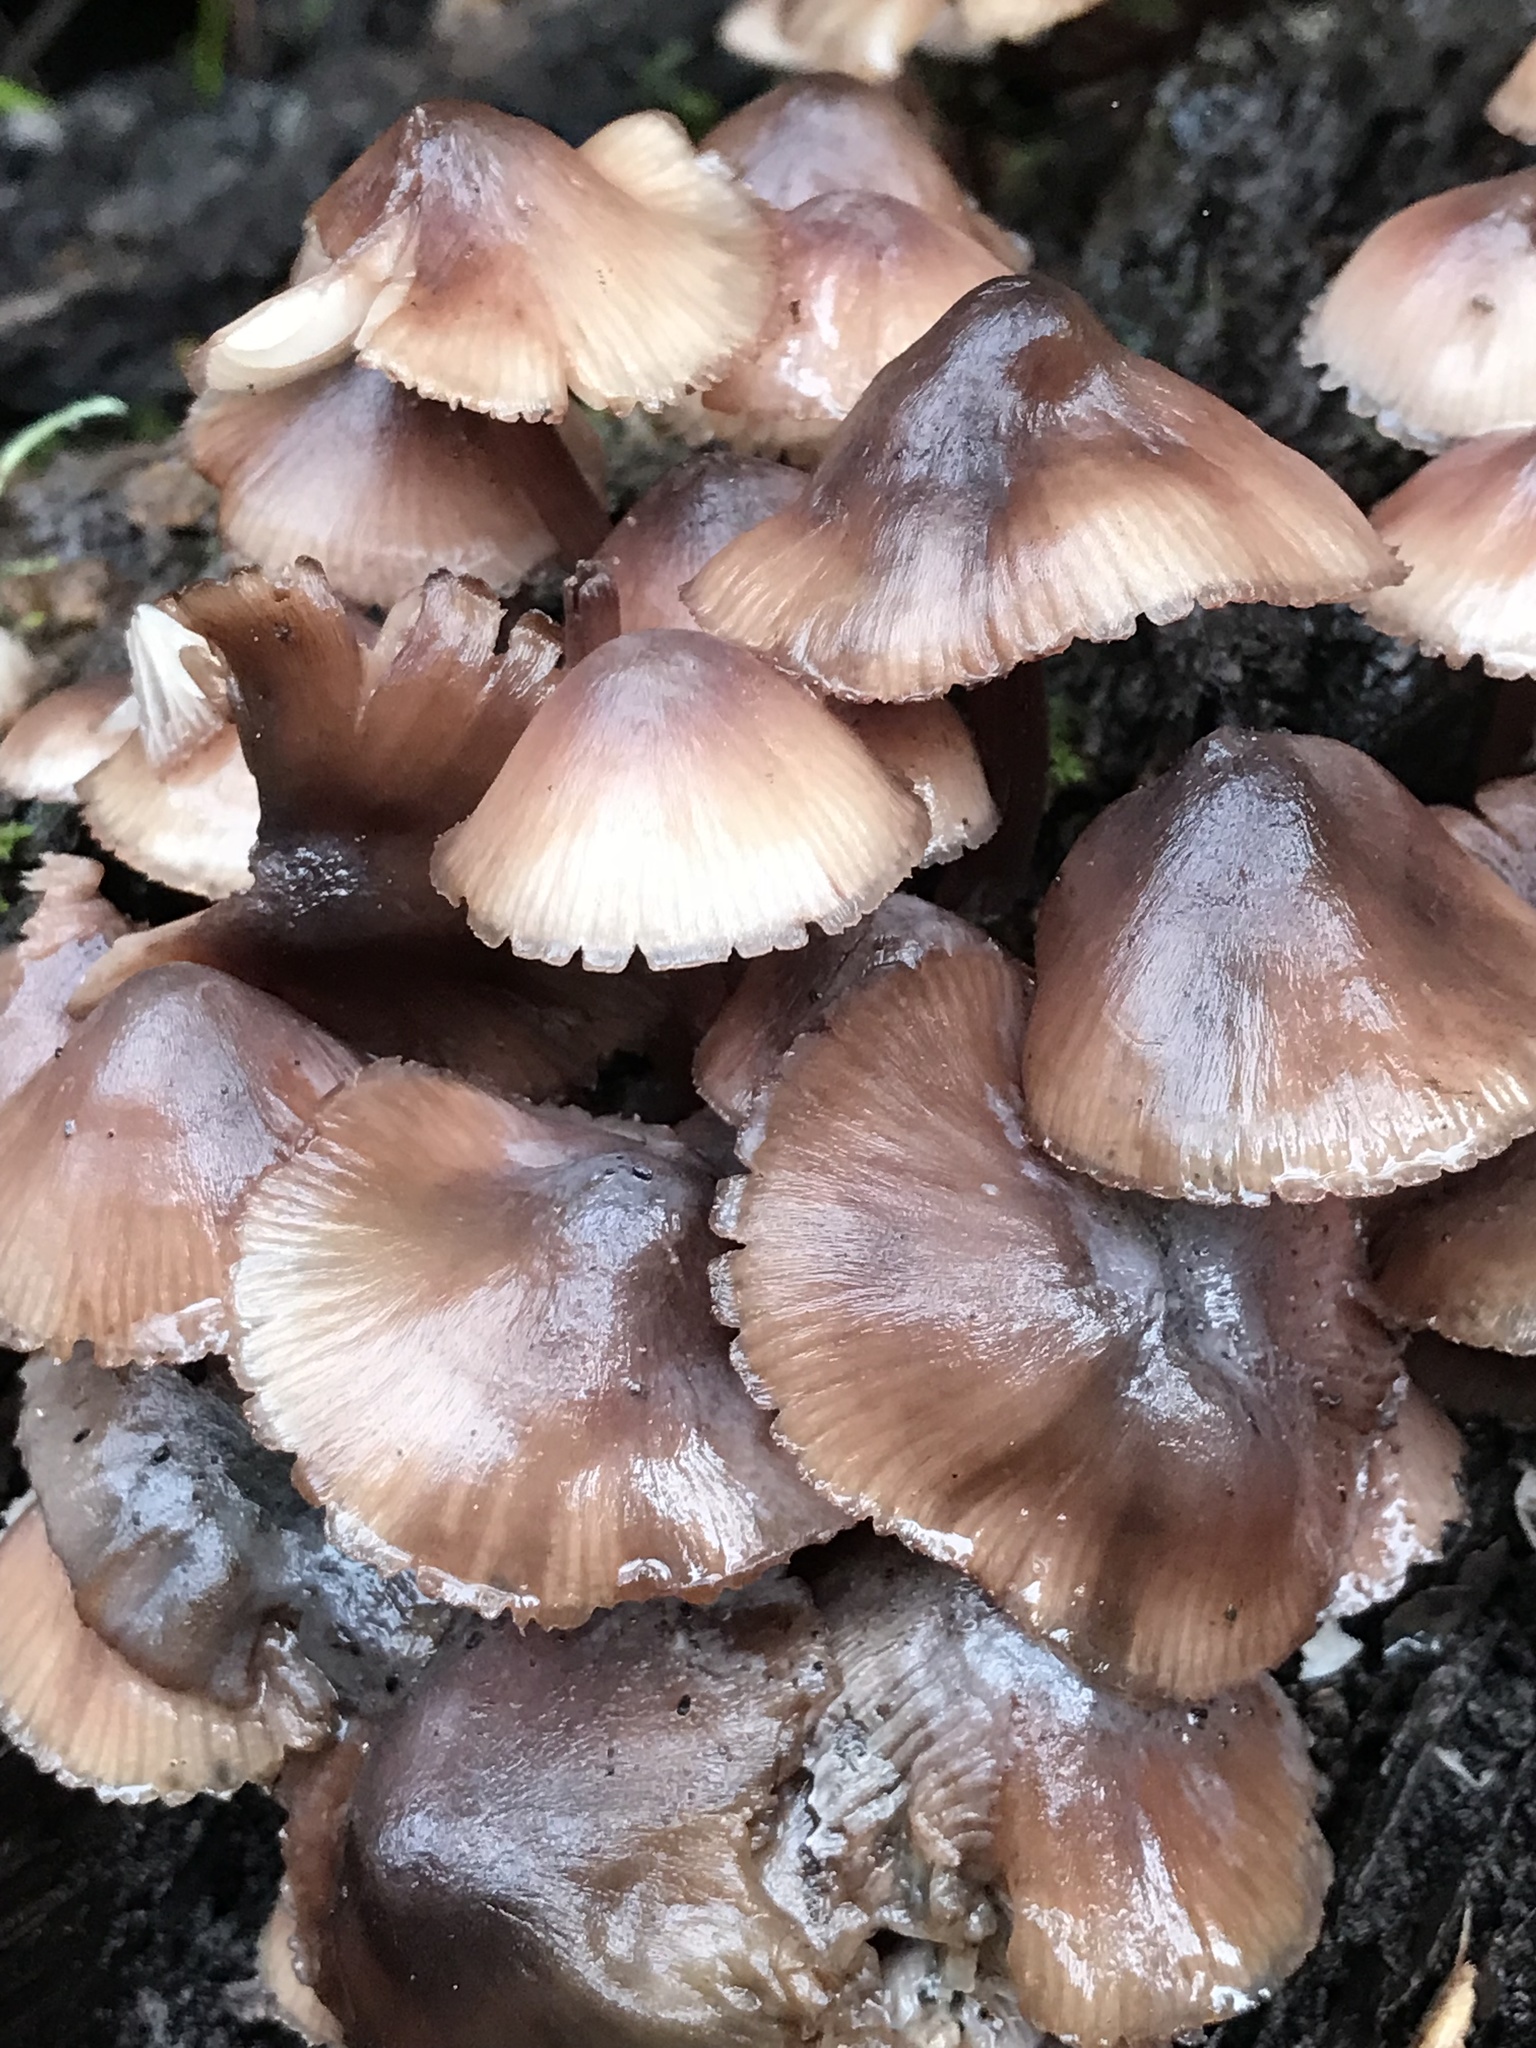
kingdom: Fungi
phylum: Basidiomycota
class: Agaricomycetes
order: Agaricales
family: Mycenaceae
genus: Mycena
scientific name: Mycena haematopus
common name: Burgundydrop bonnet
